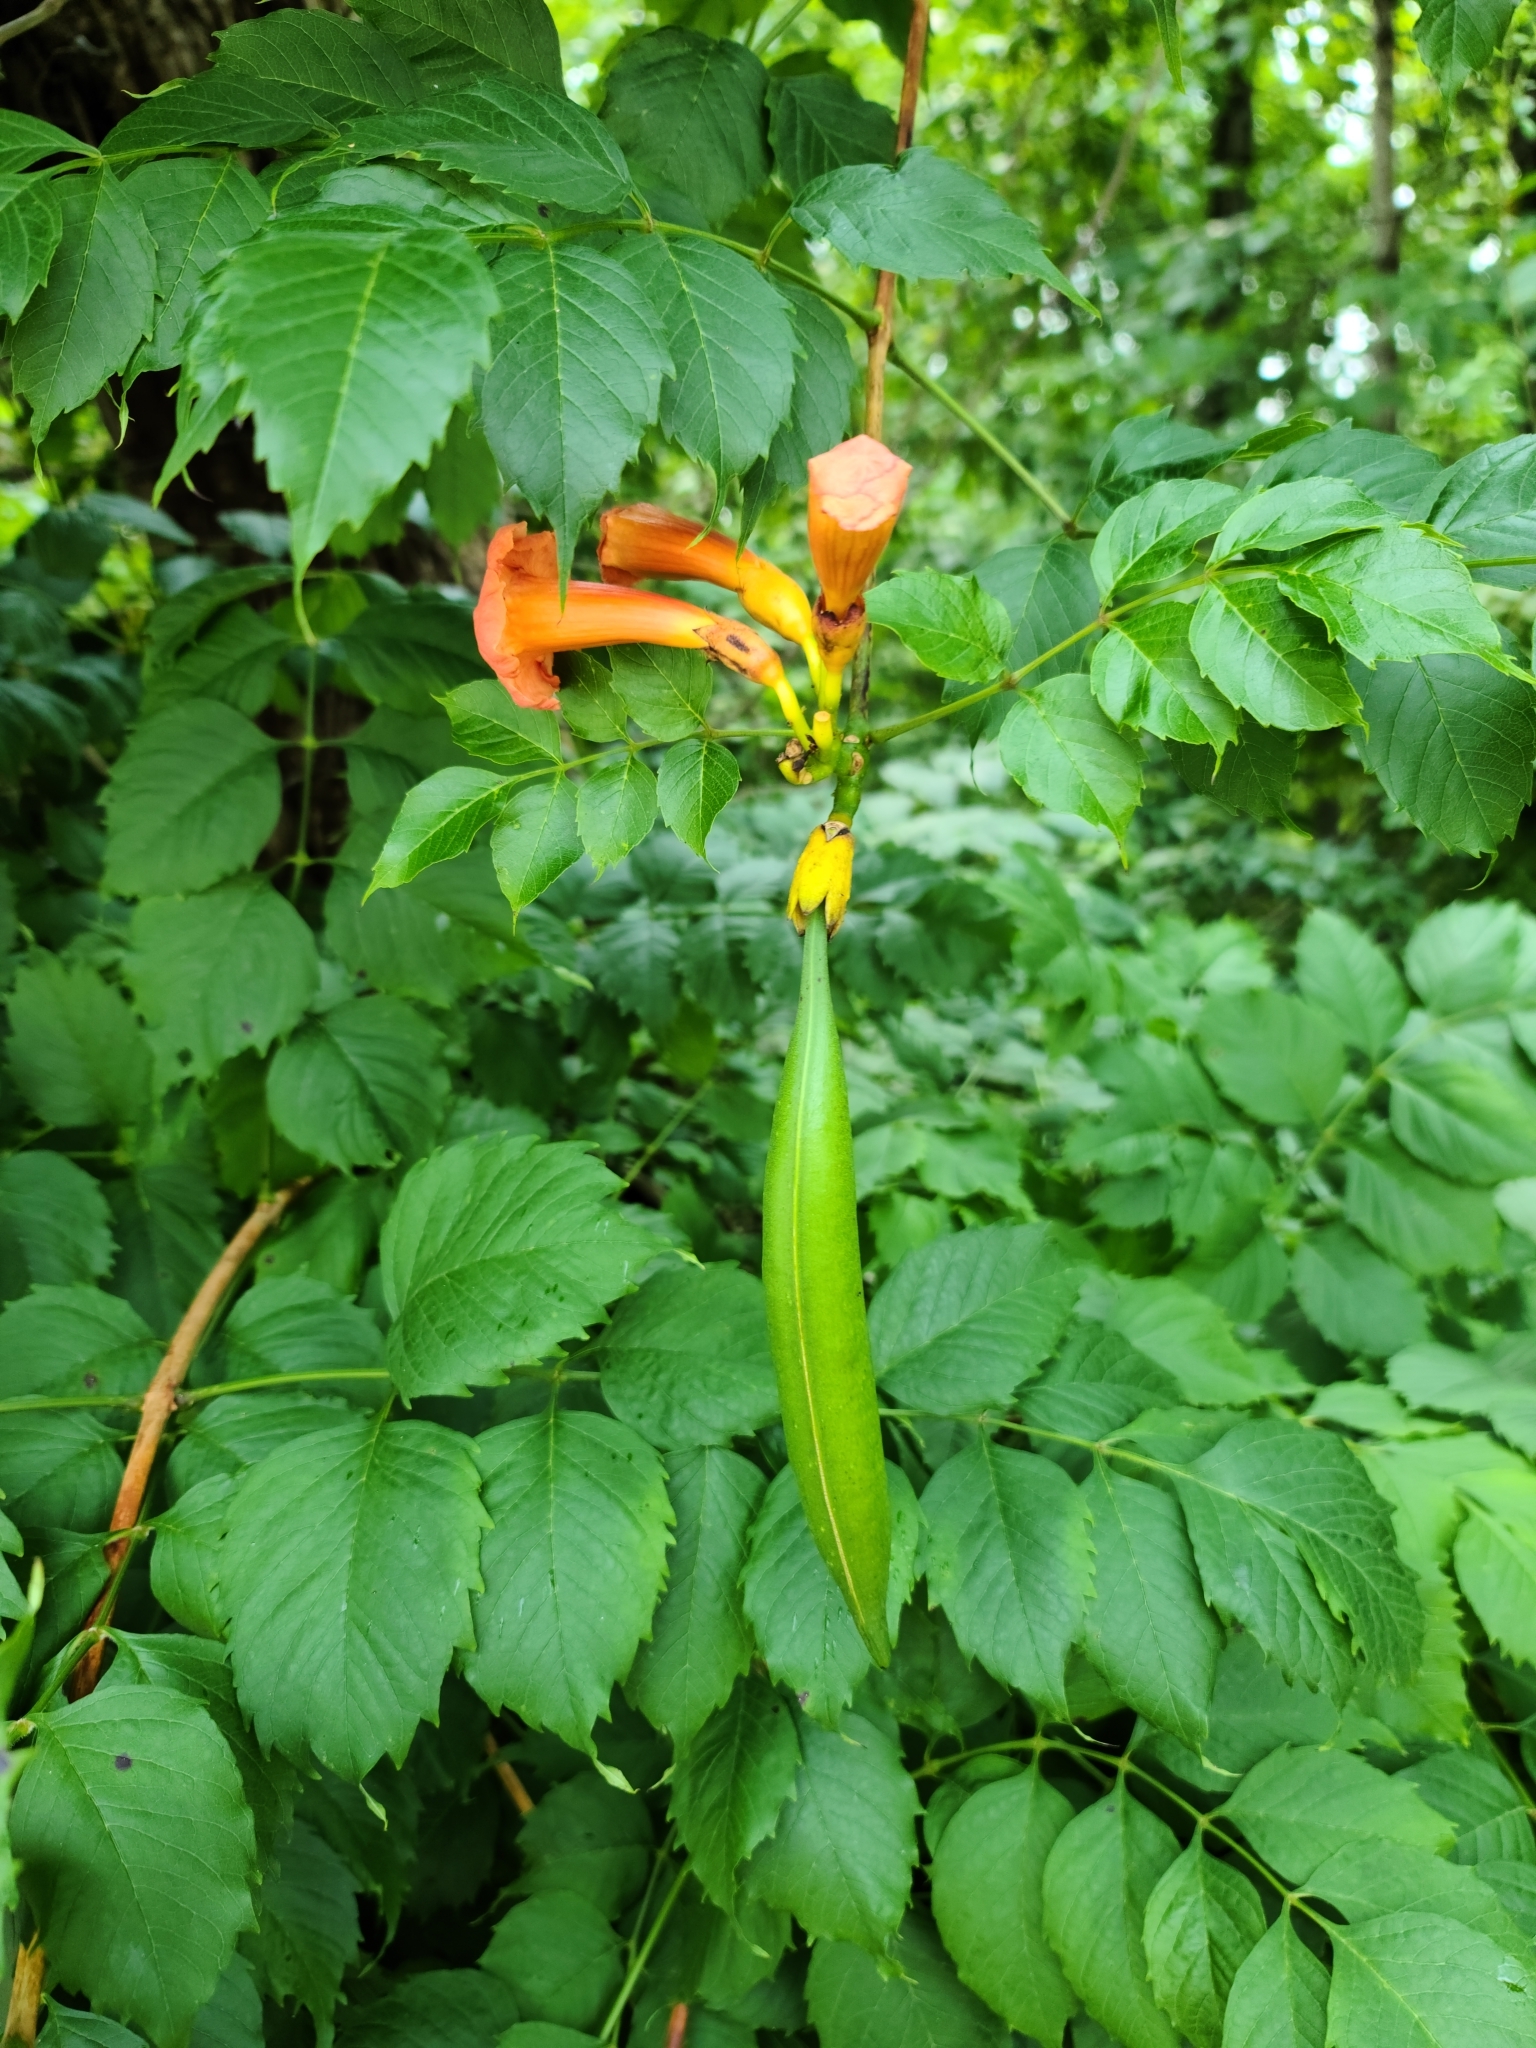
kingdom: Plantae
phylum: Tracheophyta
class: Magnoliopsida
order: Lamiales
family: Bignoniaceae
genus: Campsis
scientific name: Campsis radicans
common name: Trumpet-creeper
